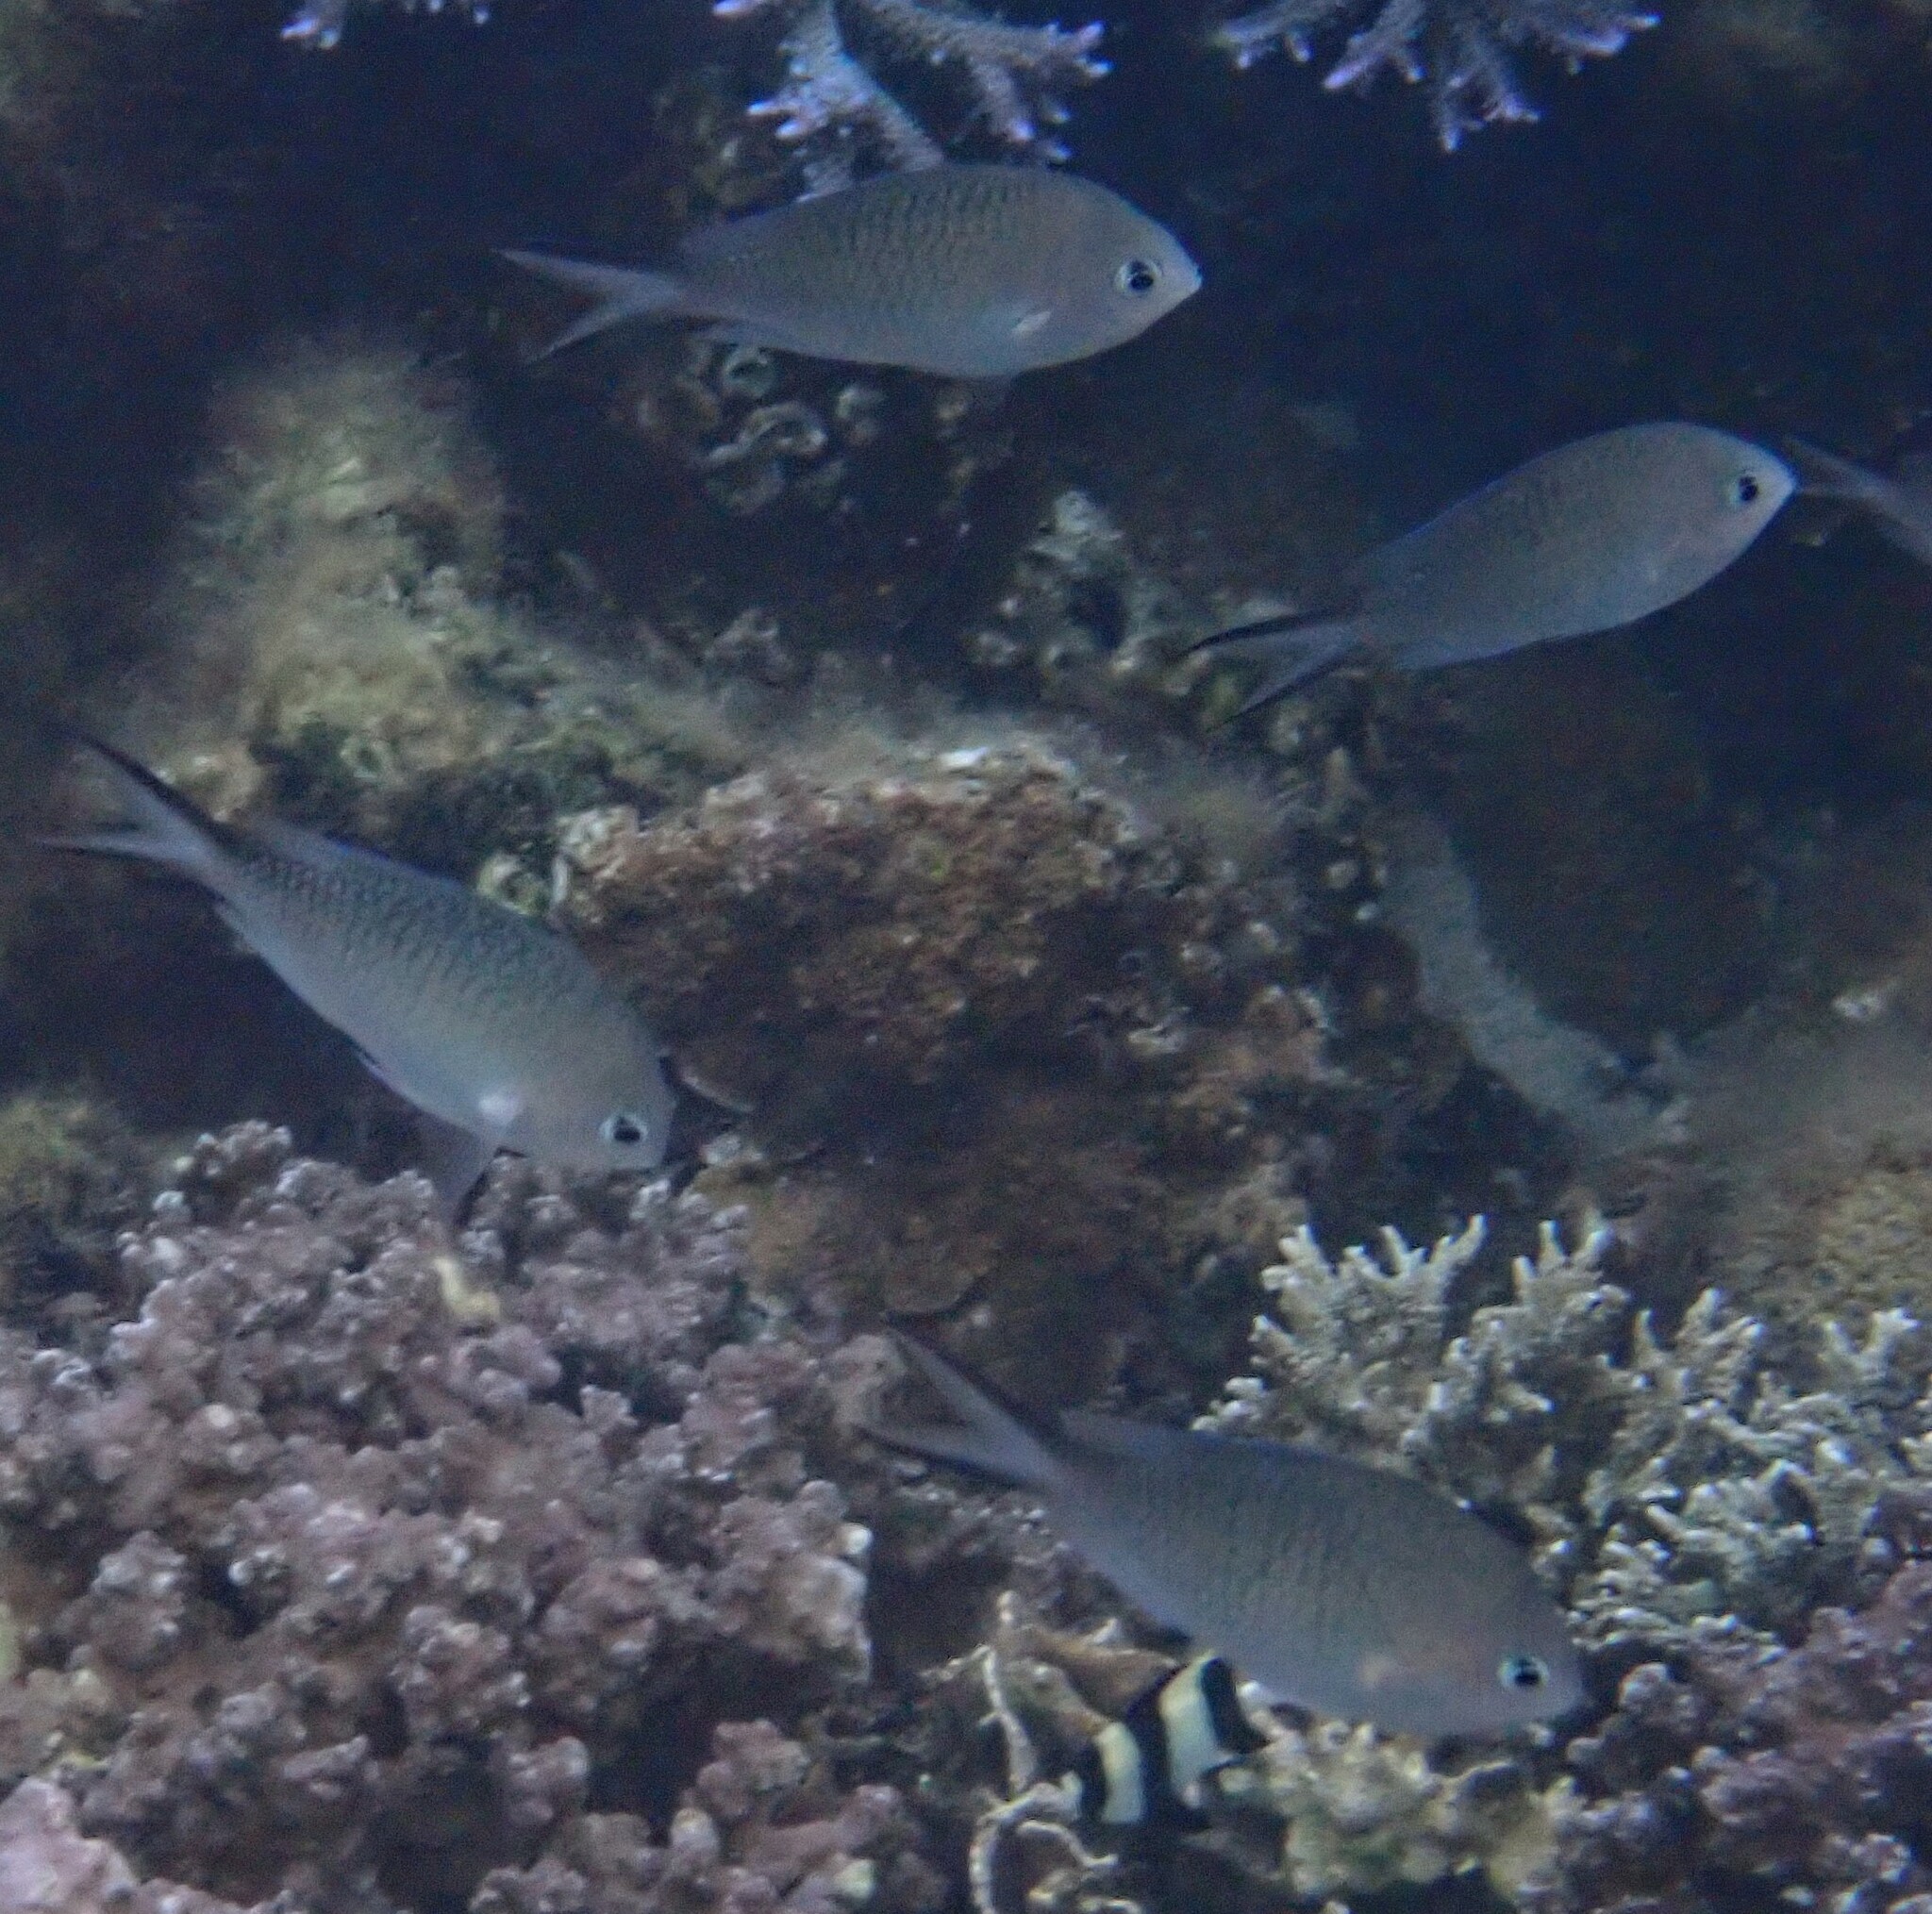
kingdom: Animalia
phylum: Chordata
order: Perciformes
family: Pomacentridae
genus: Chromis
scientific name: Chromis ternatensis
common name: Ternate chromis
